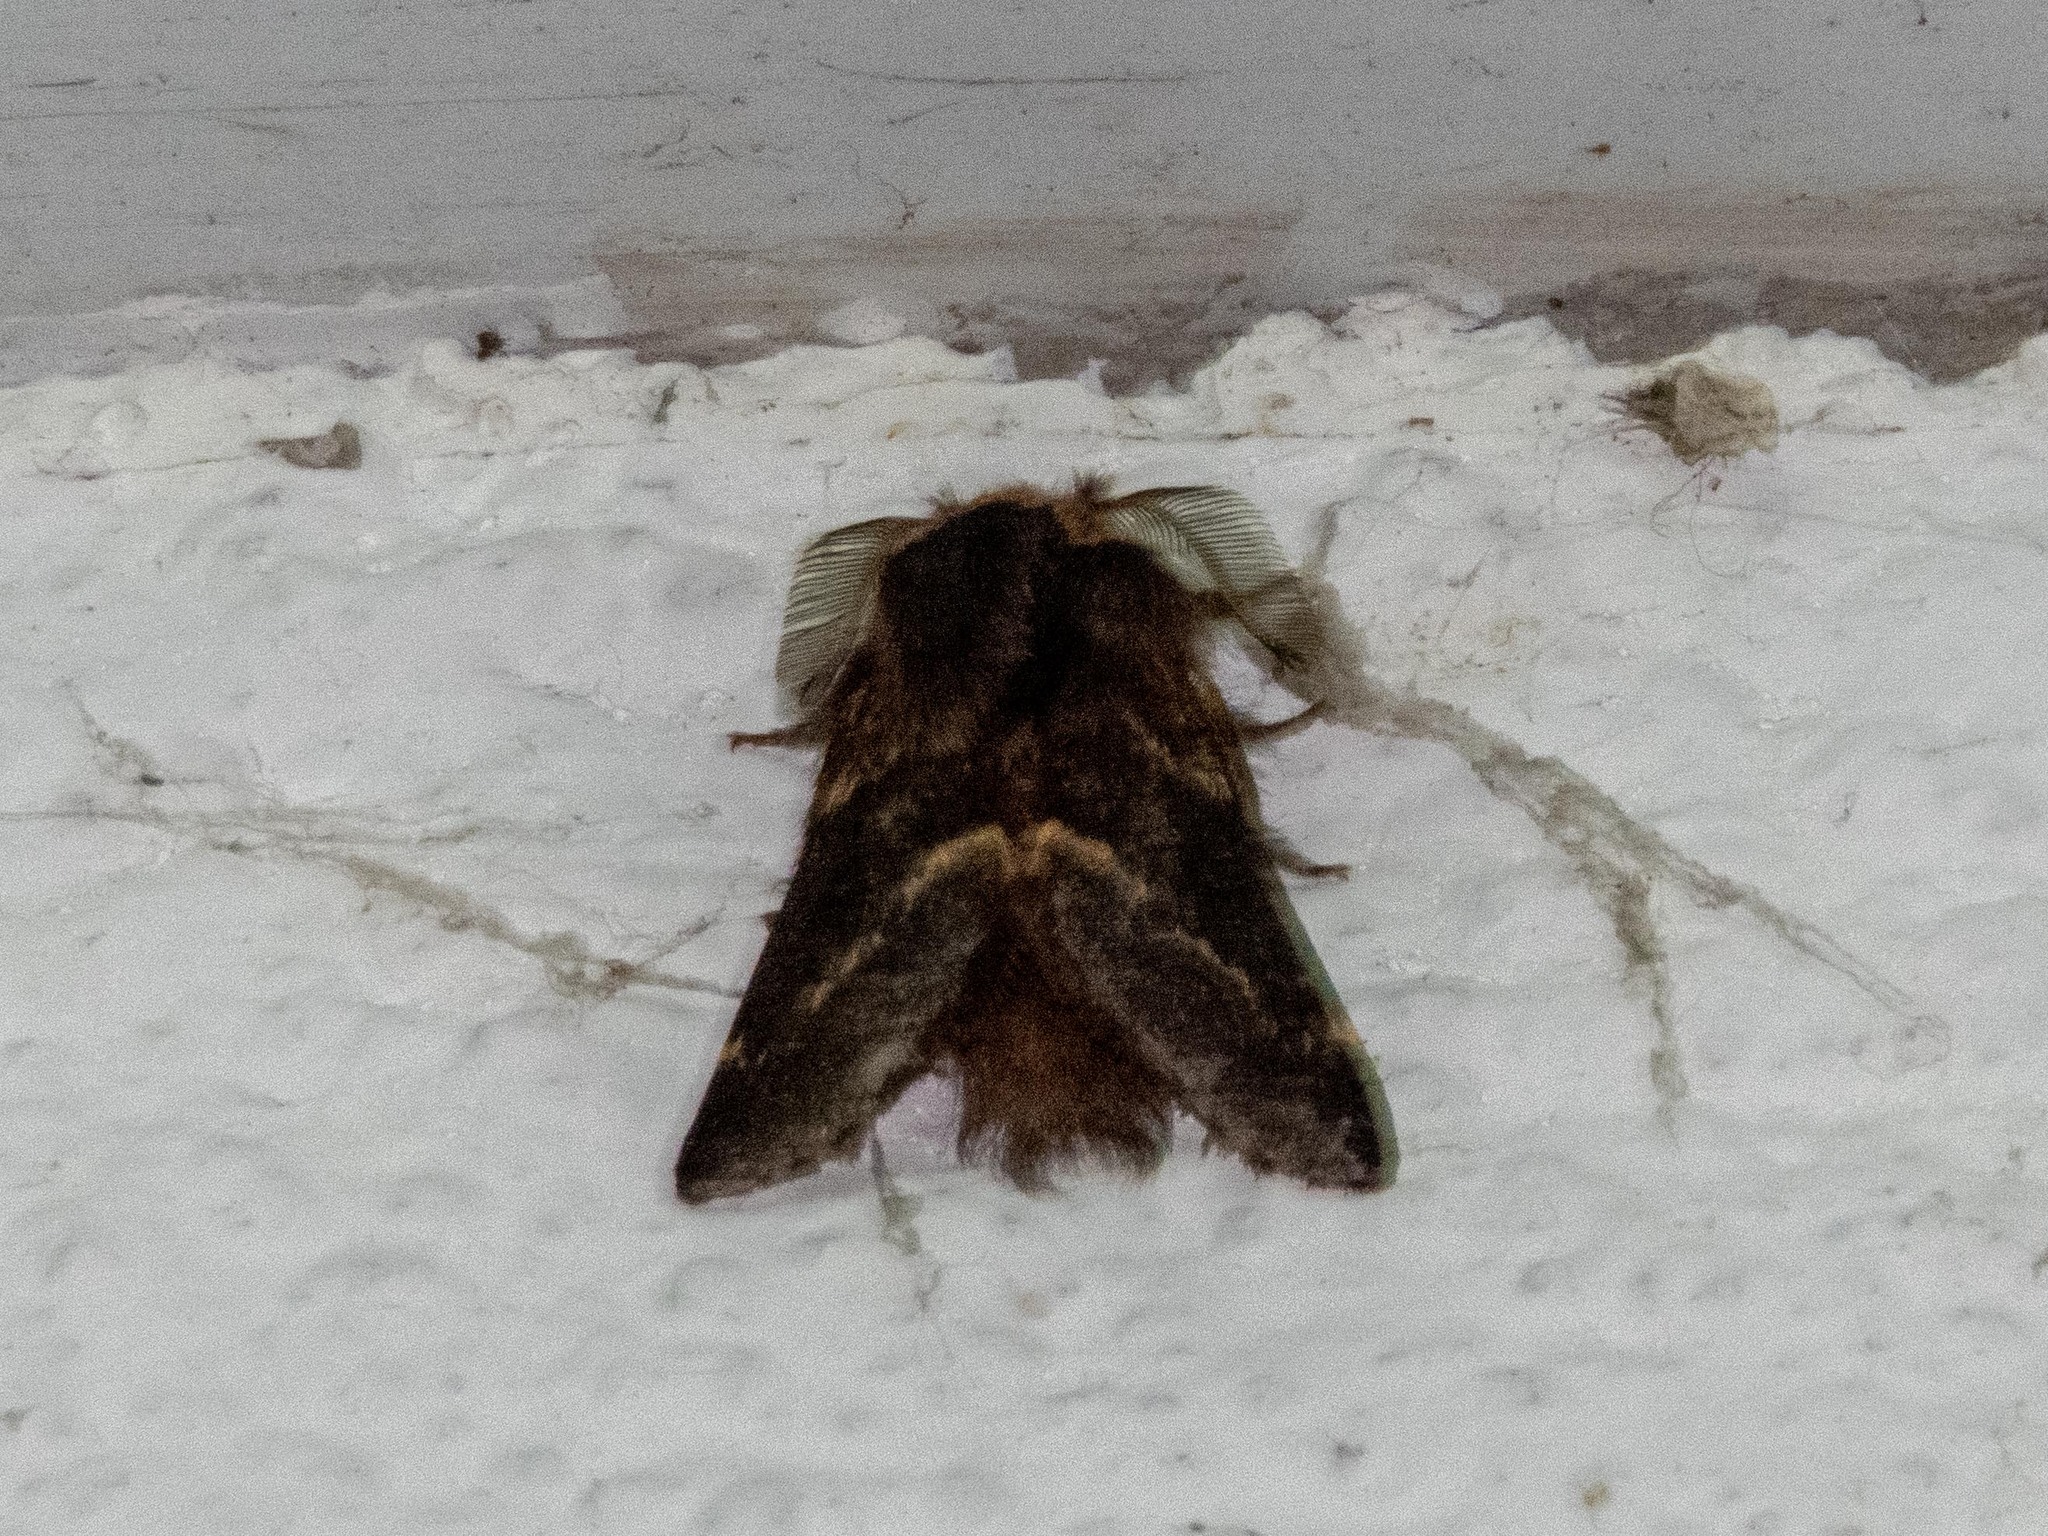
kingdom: Animalia
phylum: Arthropoda
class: Insecta
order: Lepidoptera
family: Lasiocampidae
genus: Poecilocampa
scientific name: Poecilocampa populi
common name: December moth
